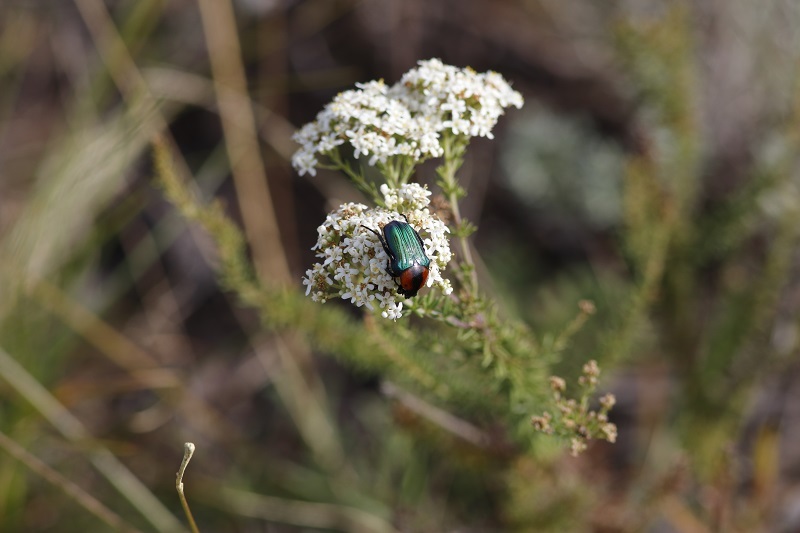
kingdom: Animalia
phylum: Arthropoda
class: Insecta
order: Coleoptera
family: Scarabaeidae
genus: Leucocelis
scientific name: Leucocelis amethystina
